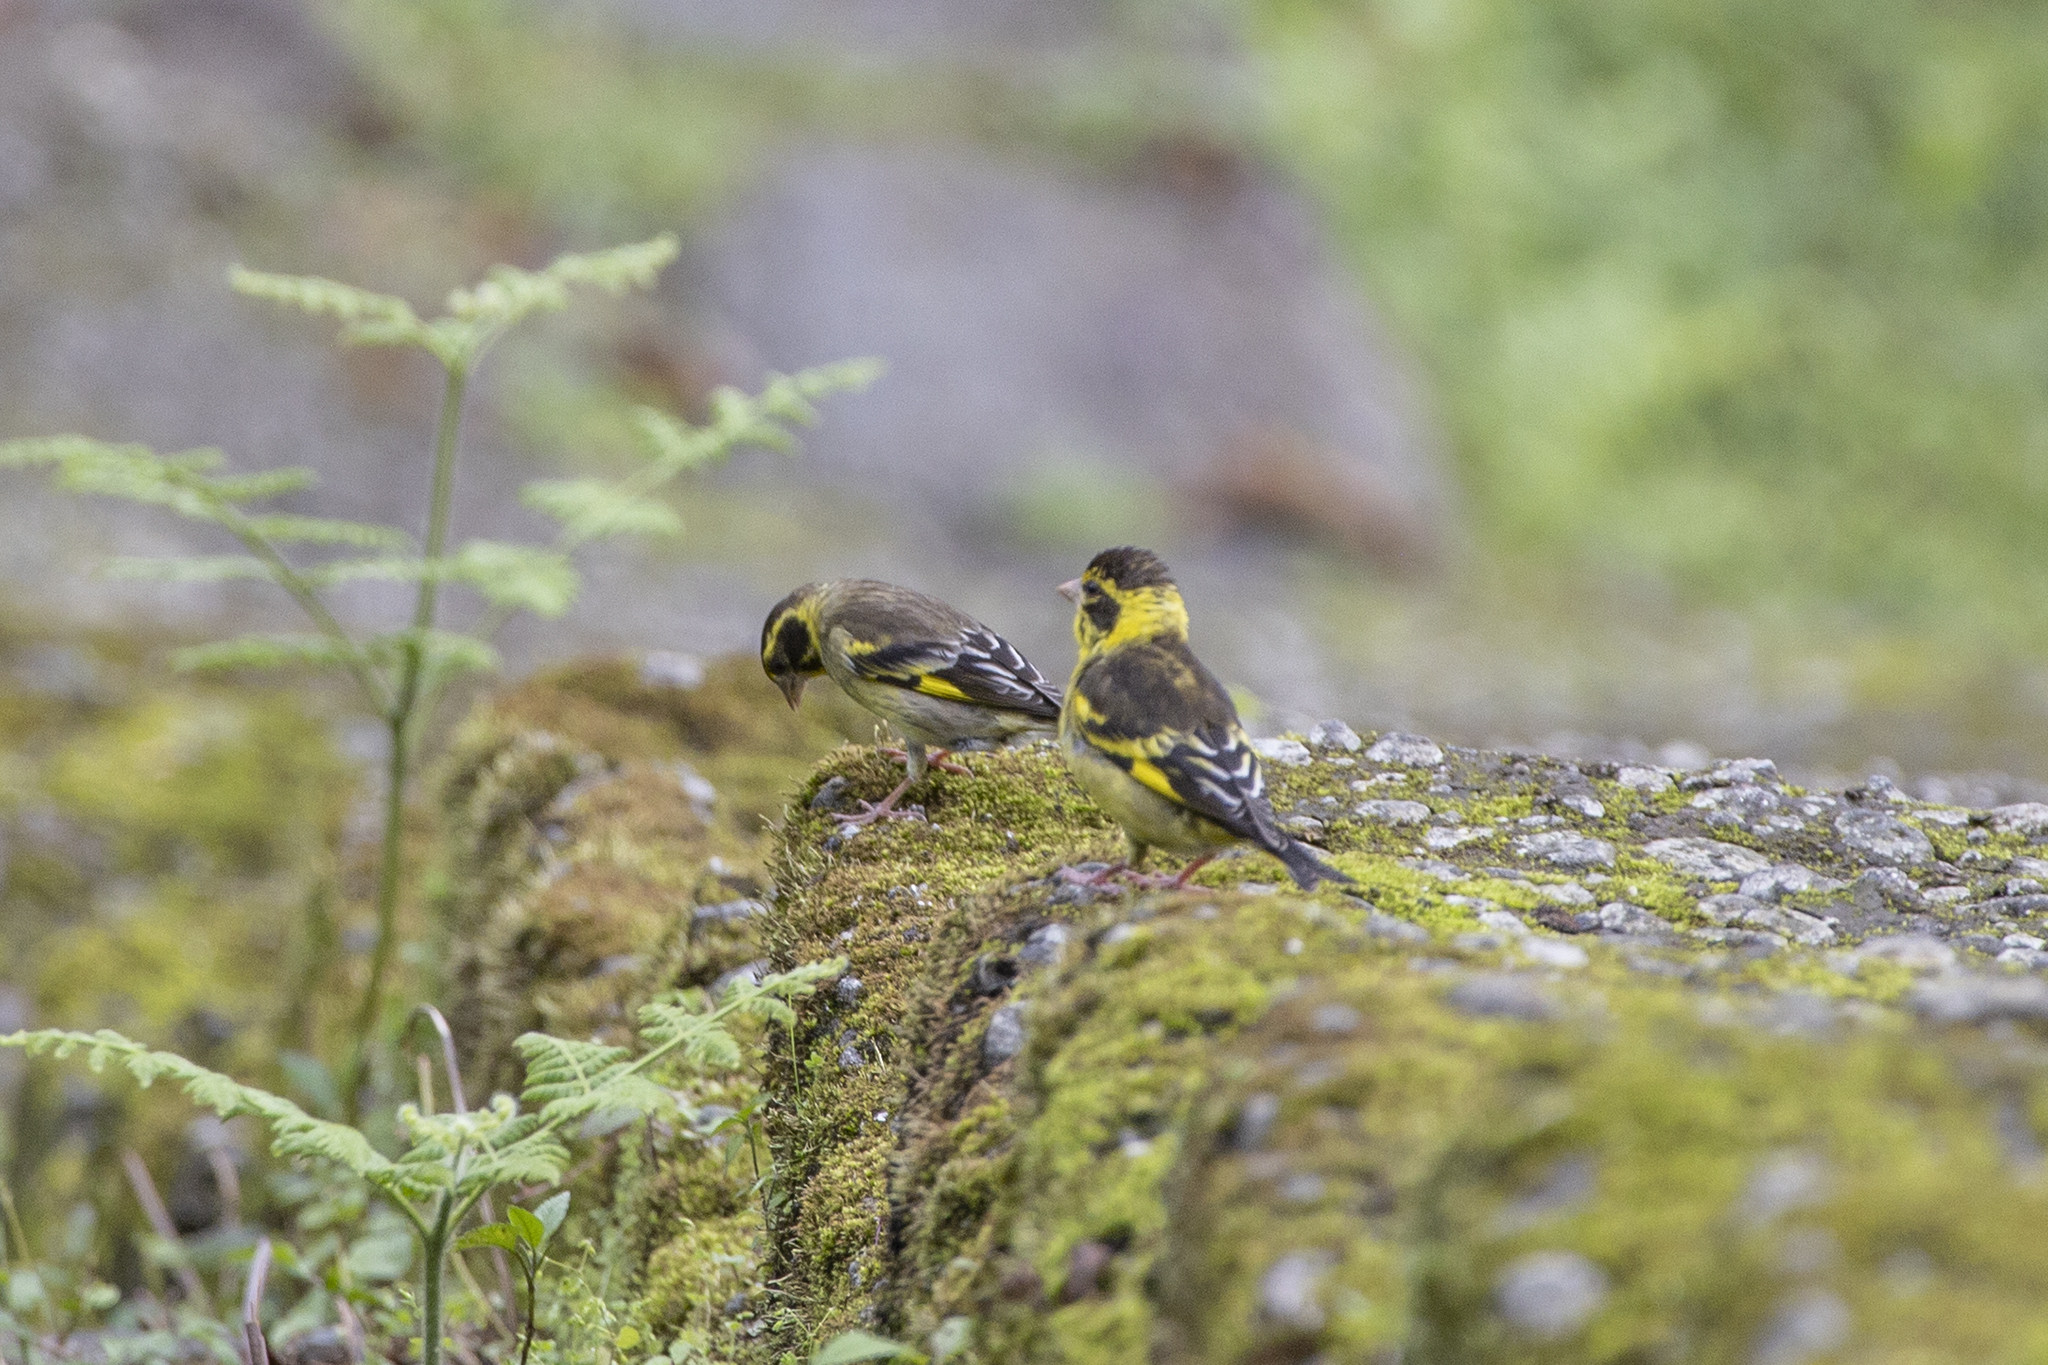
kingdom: Animalia
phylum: Chordata
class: Aves
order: Passeriformes
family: Fringillidae
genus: Chloris
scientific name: Chloris spinoides
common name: Yellow-breasted greenfinch
